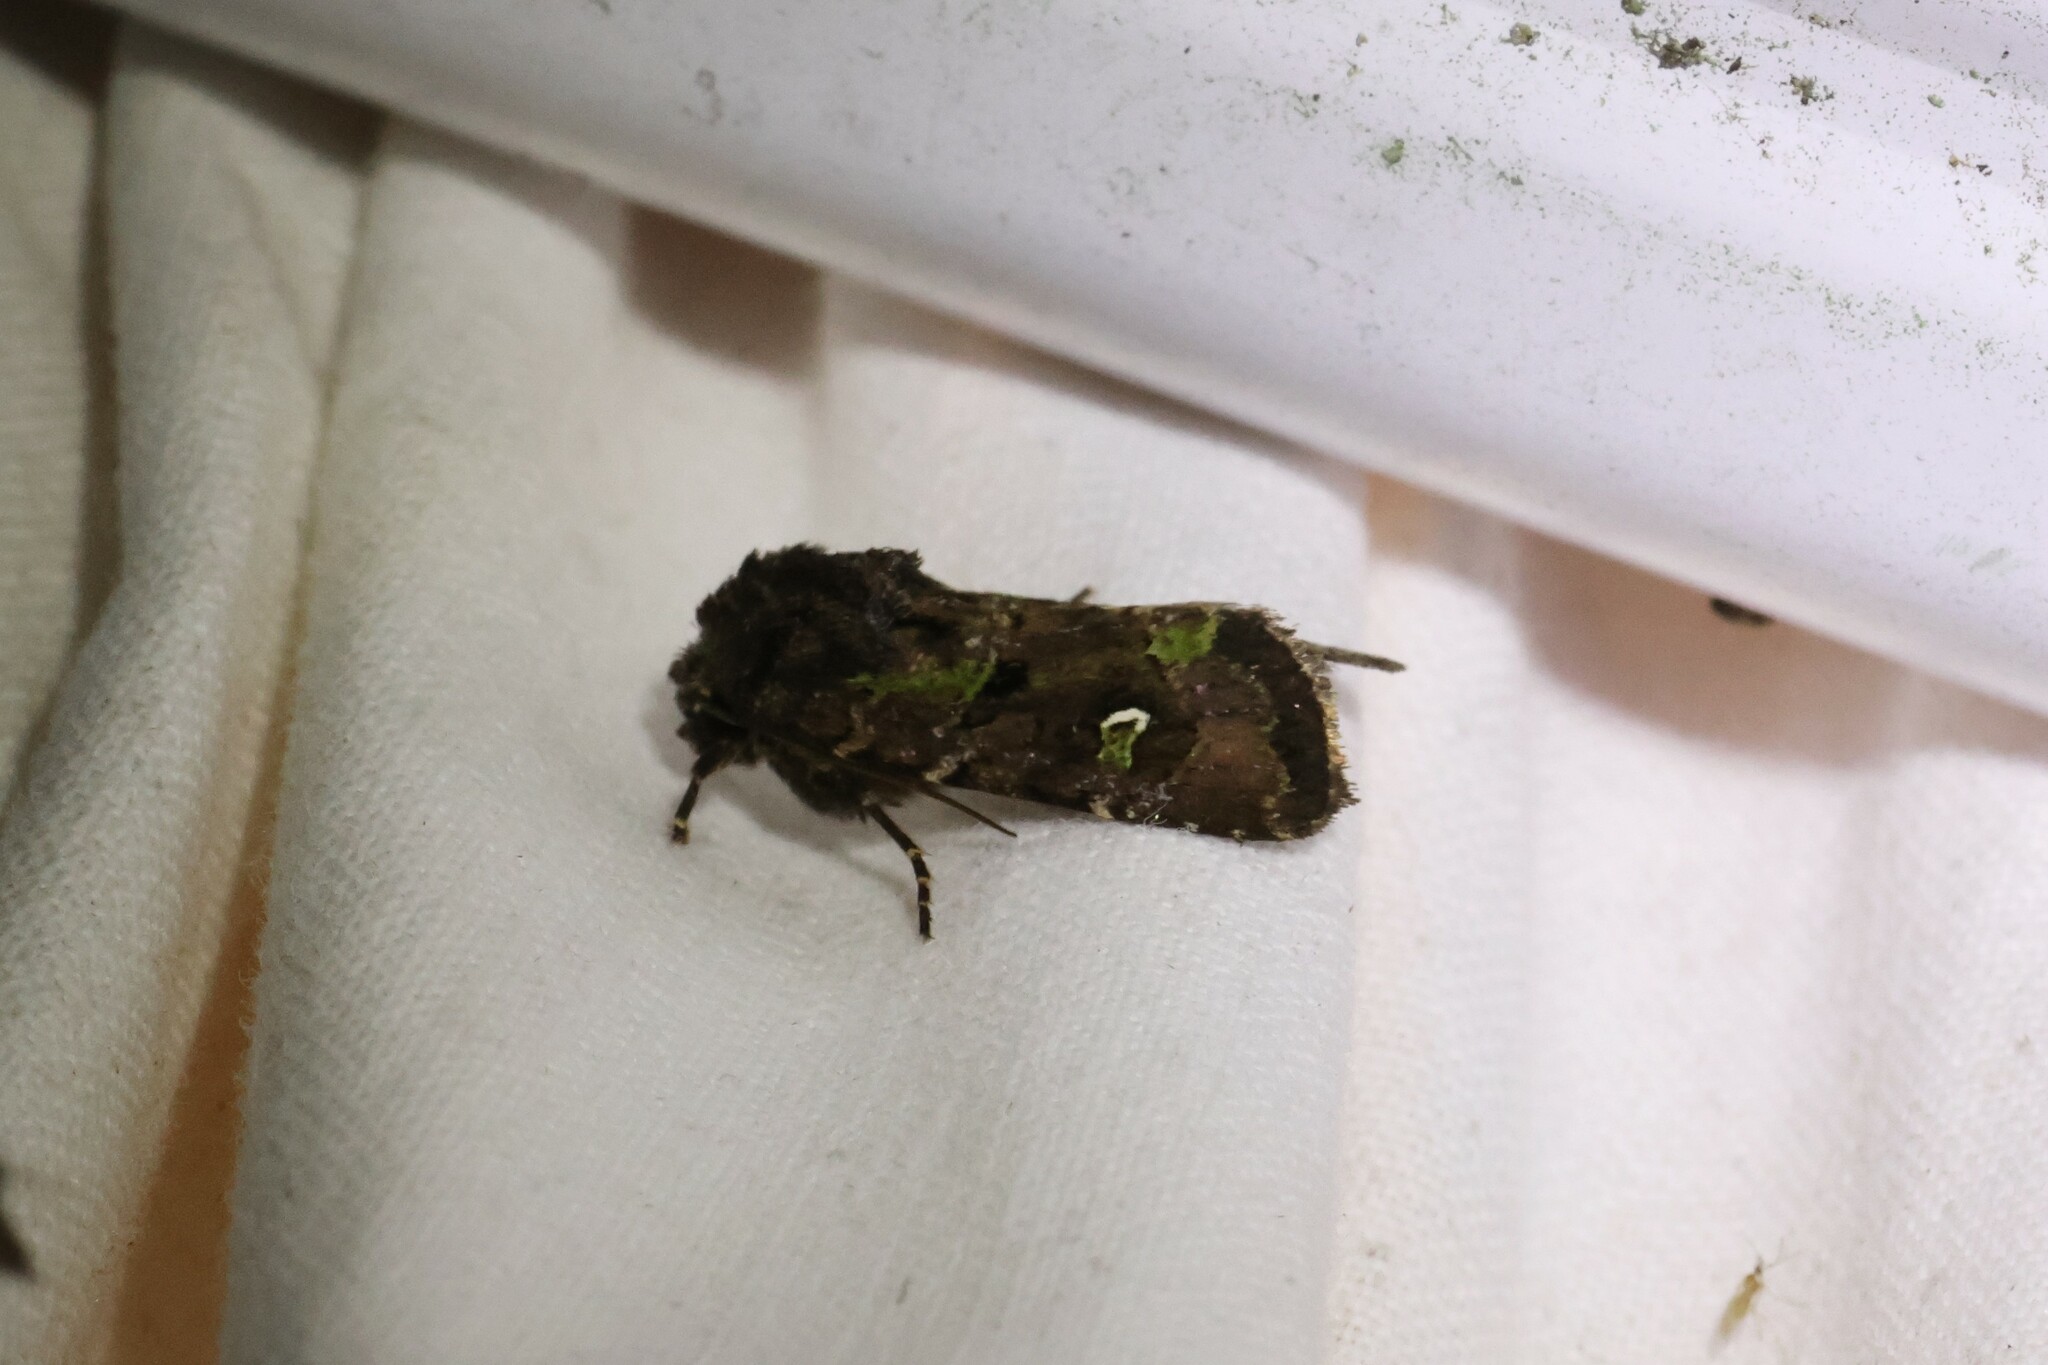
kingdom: Animalia
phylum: Arthropoda
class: Insecta
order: Lepidoptera
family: Noctuidae
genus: Lacinipolia
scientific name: Lacinipolia renigera
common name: Kidney-spotted minor
